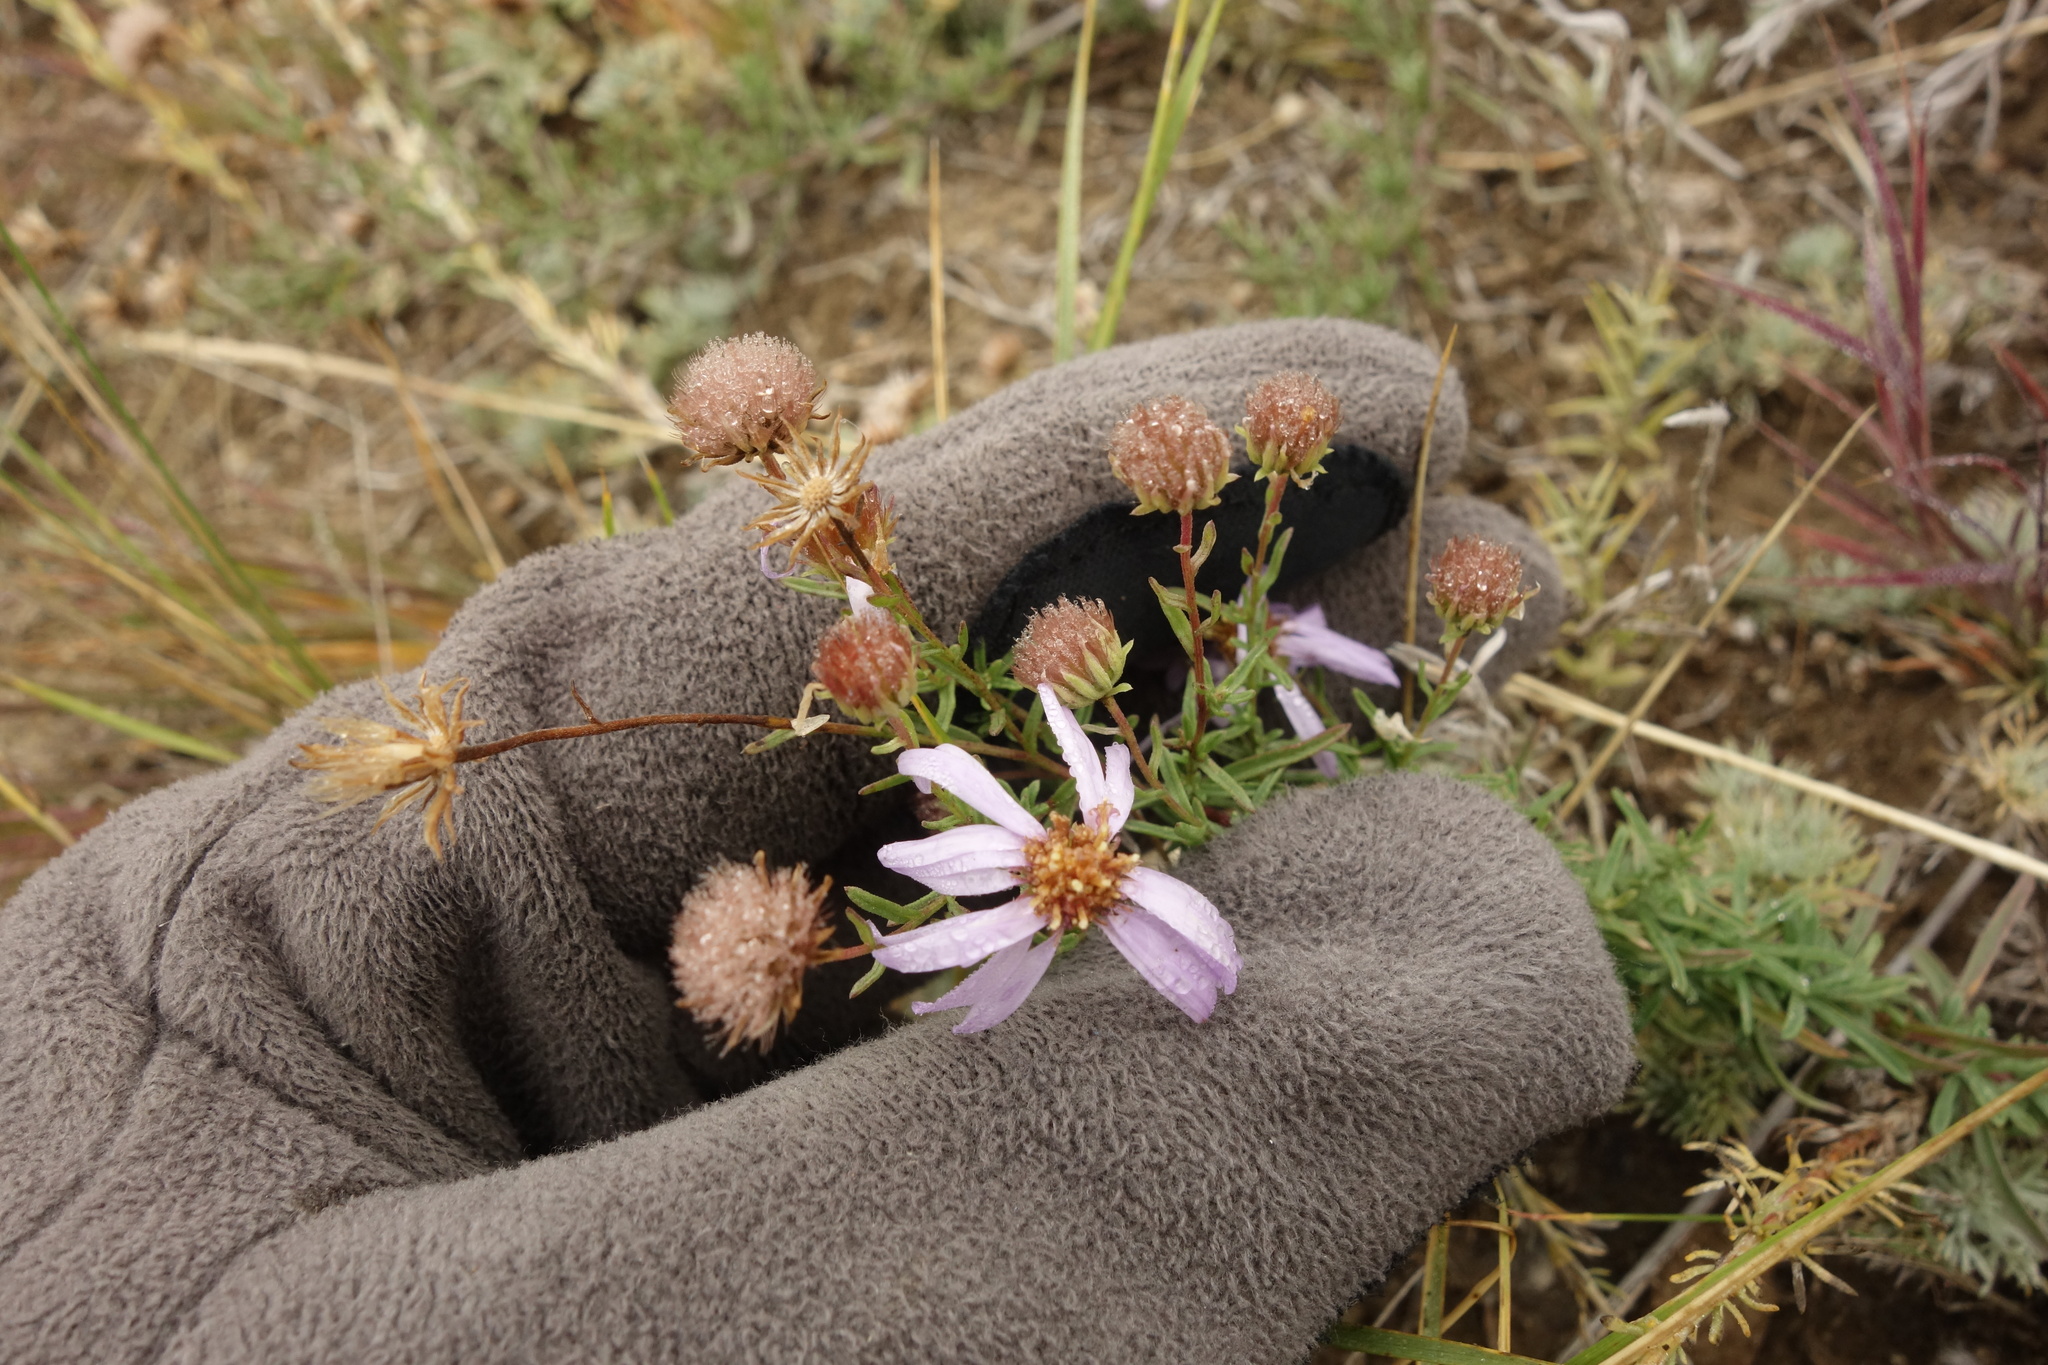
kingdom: Plantae
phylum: Tracheophyta
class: Magnoliopsida
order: Asterales
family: Asteraceae
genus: Heteropappus
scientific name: Heteropappus altaicus
